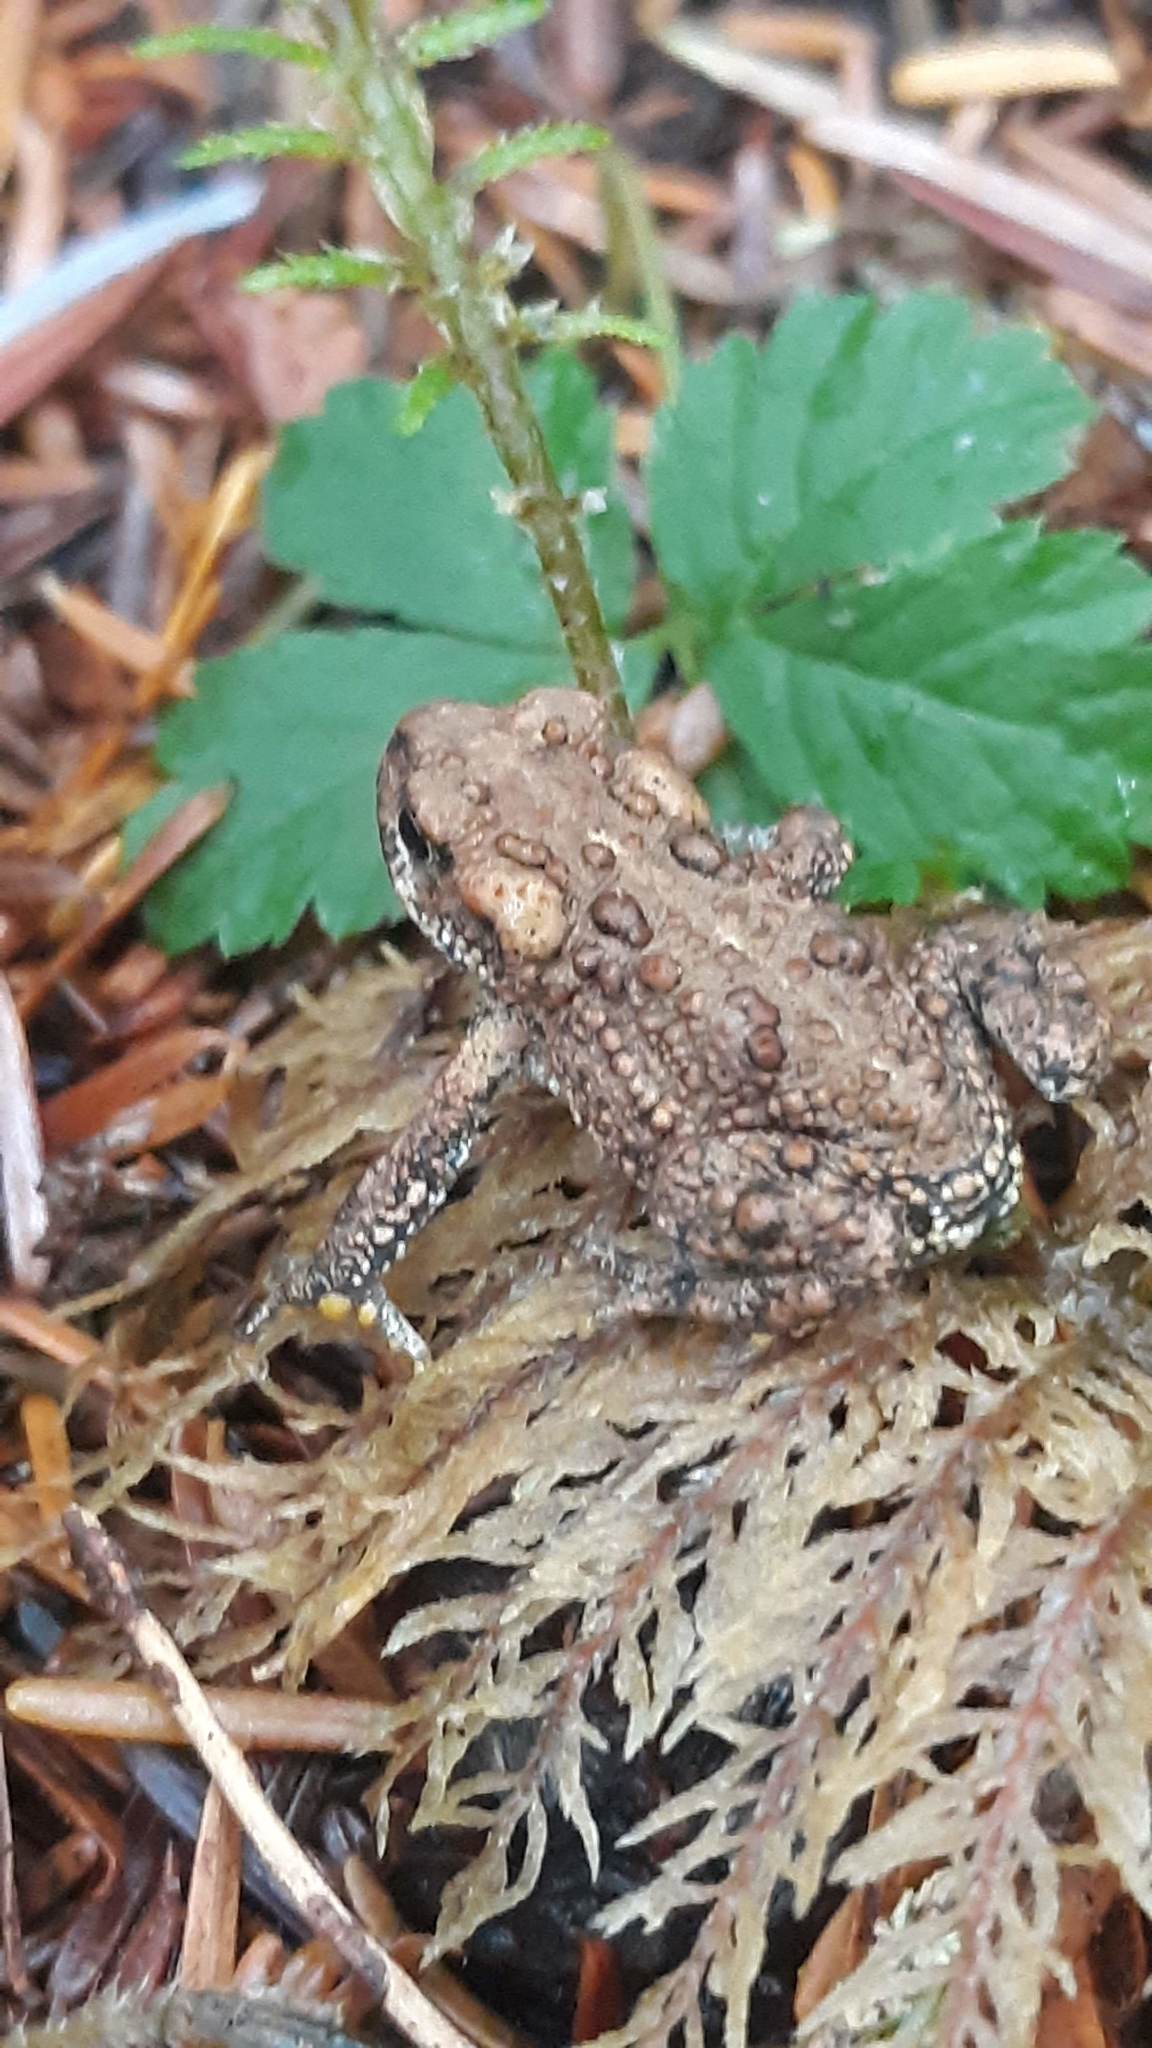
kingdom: Animalia
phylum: Chordata
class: Amphibia
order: Anura
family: Bufonidae
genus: Anaxyrus
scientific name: Anaxyrus boreas
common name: Western toad
